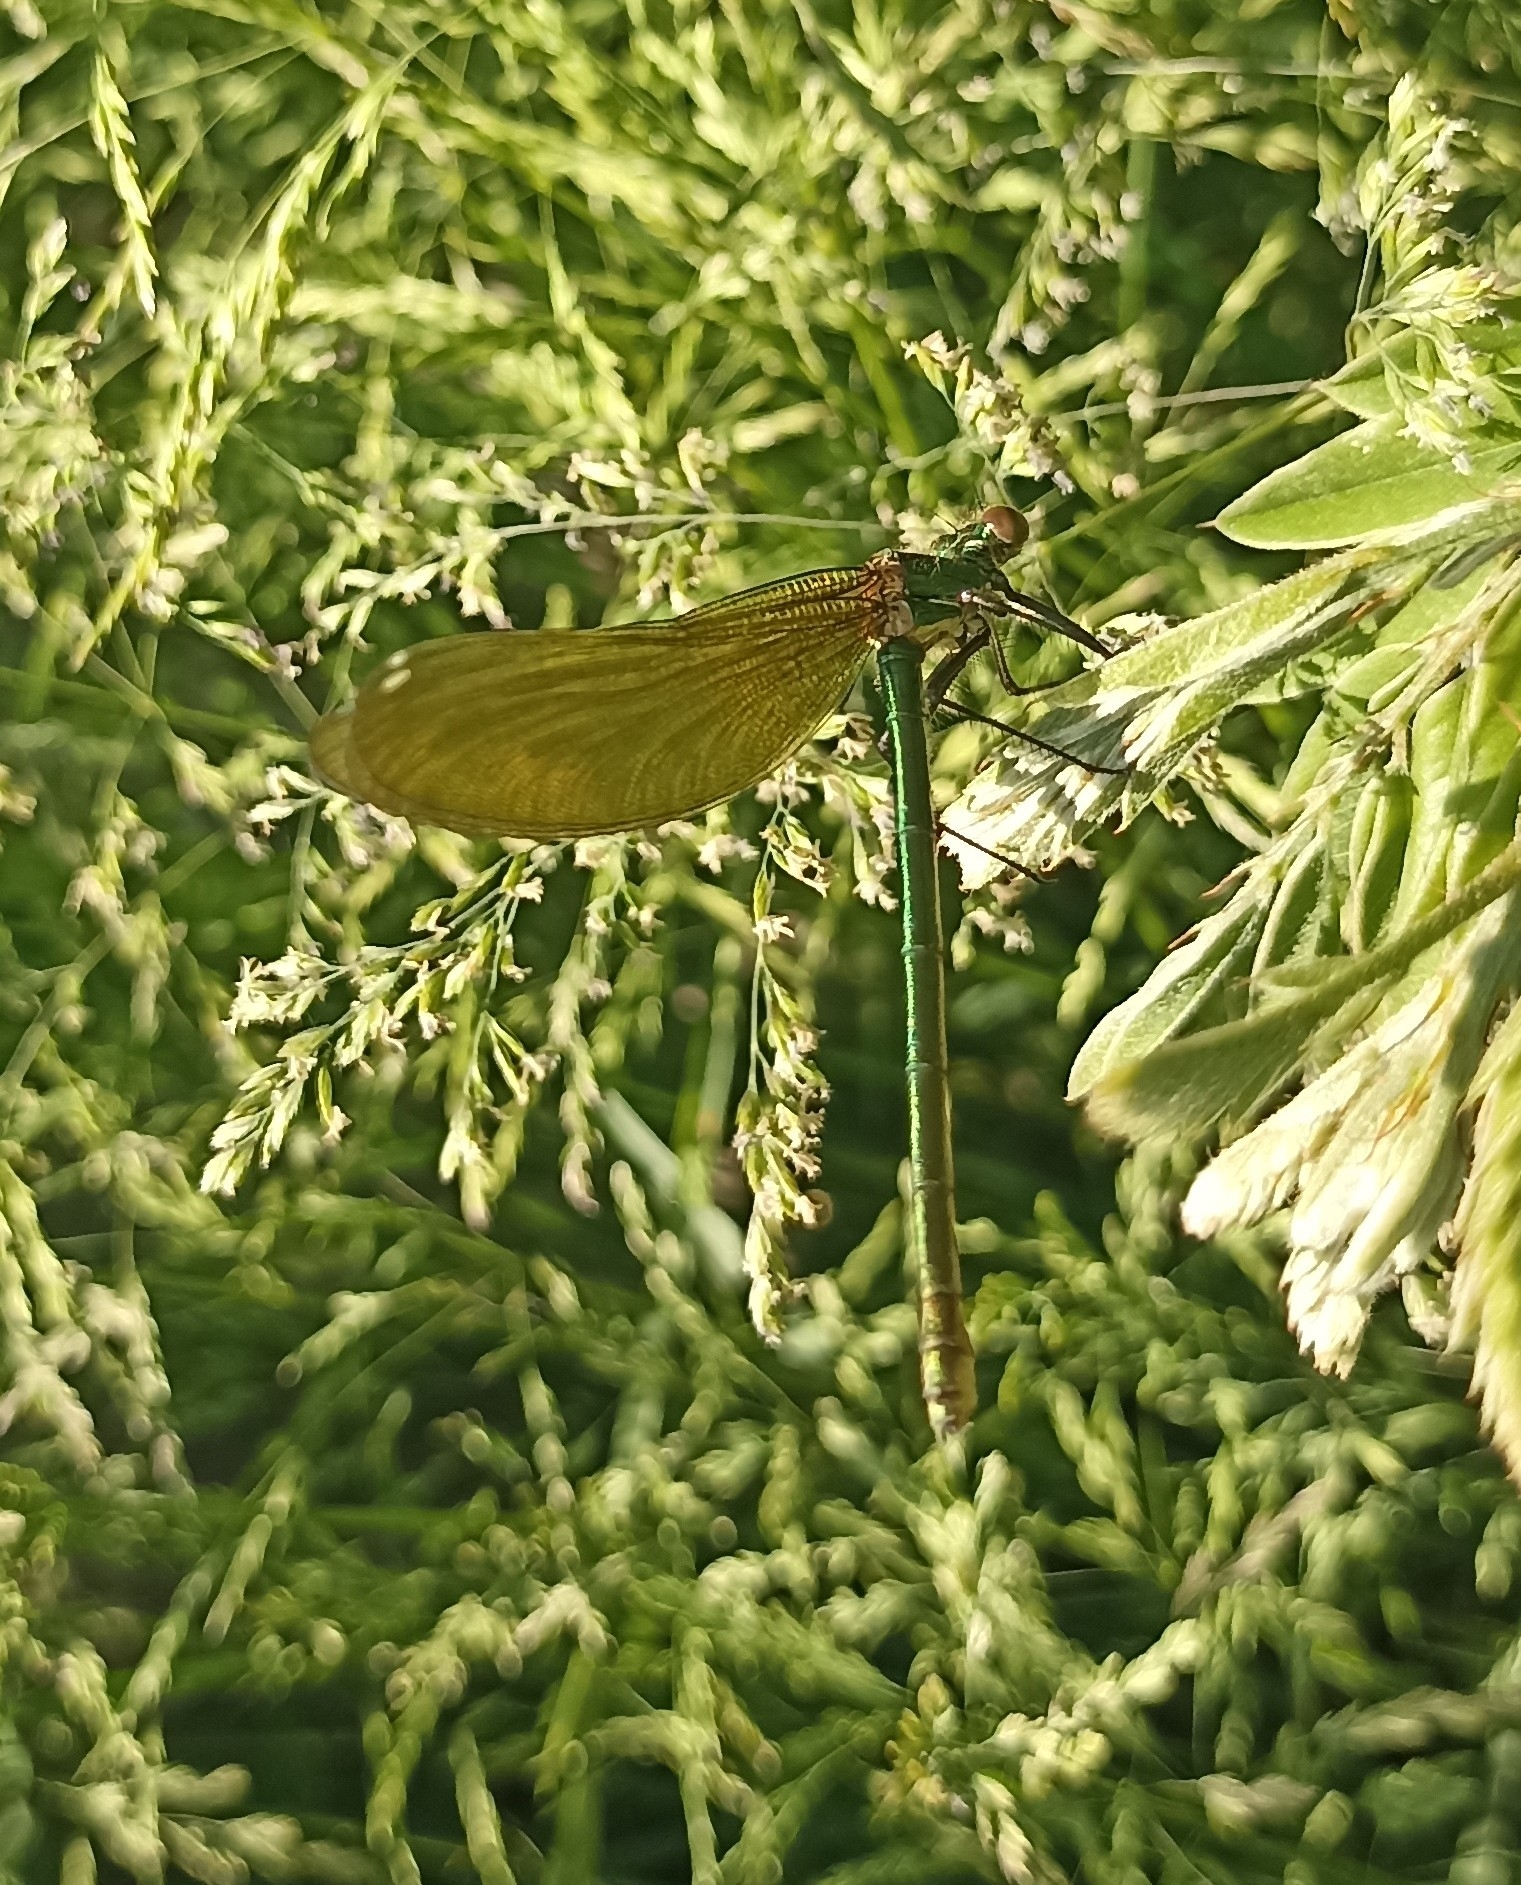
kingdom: Animalia
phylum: Arthropoda
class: Insecta
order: Odonata
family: Calopterygidae
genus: Calopteryx
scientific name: Calopteryx splendens
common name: Banded demoiselle
